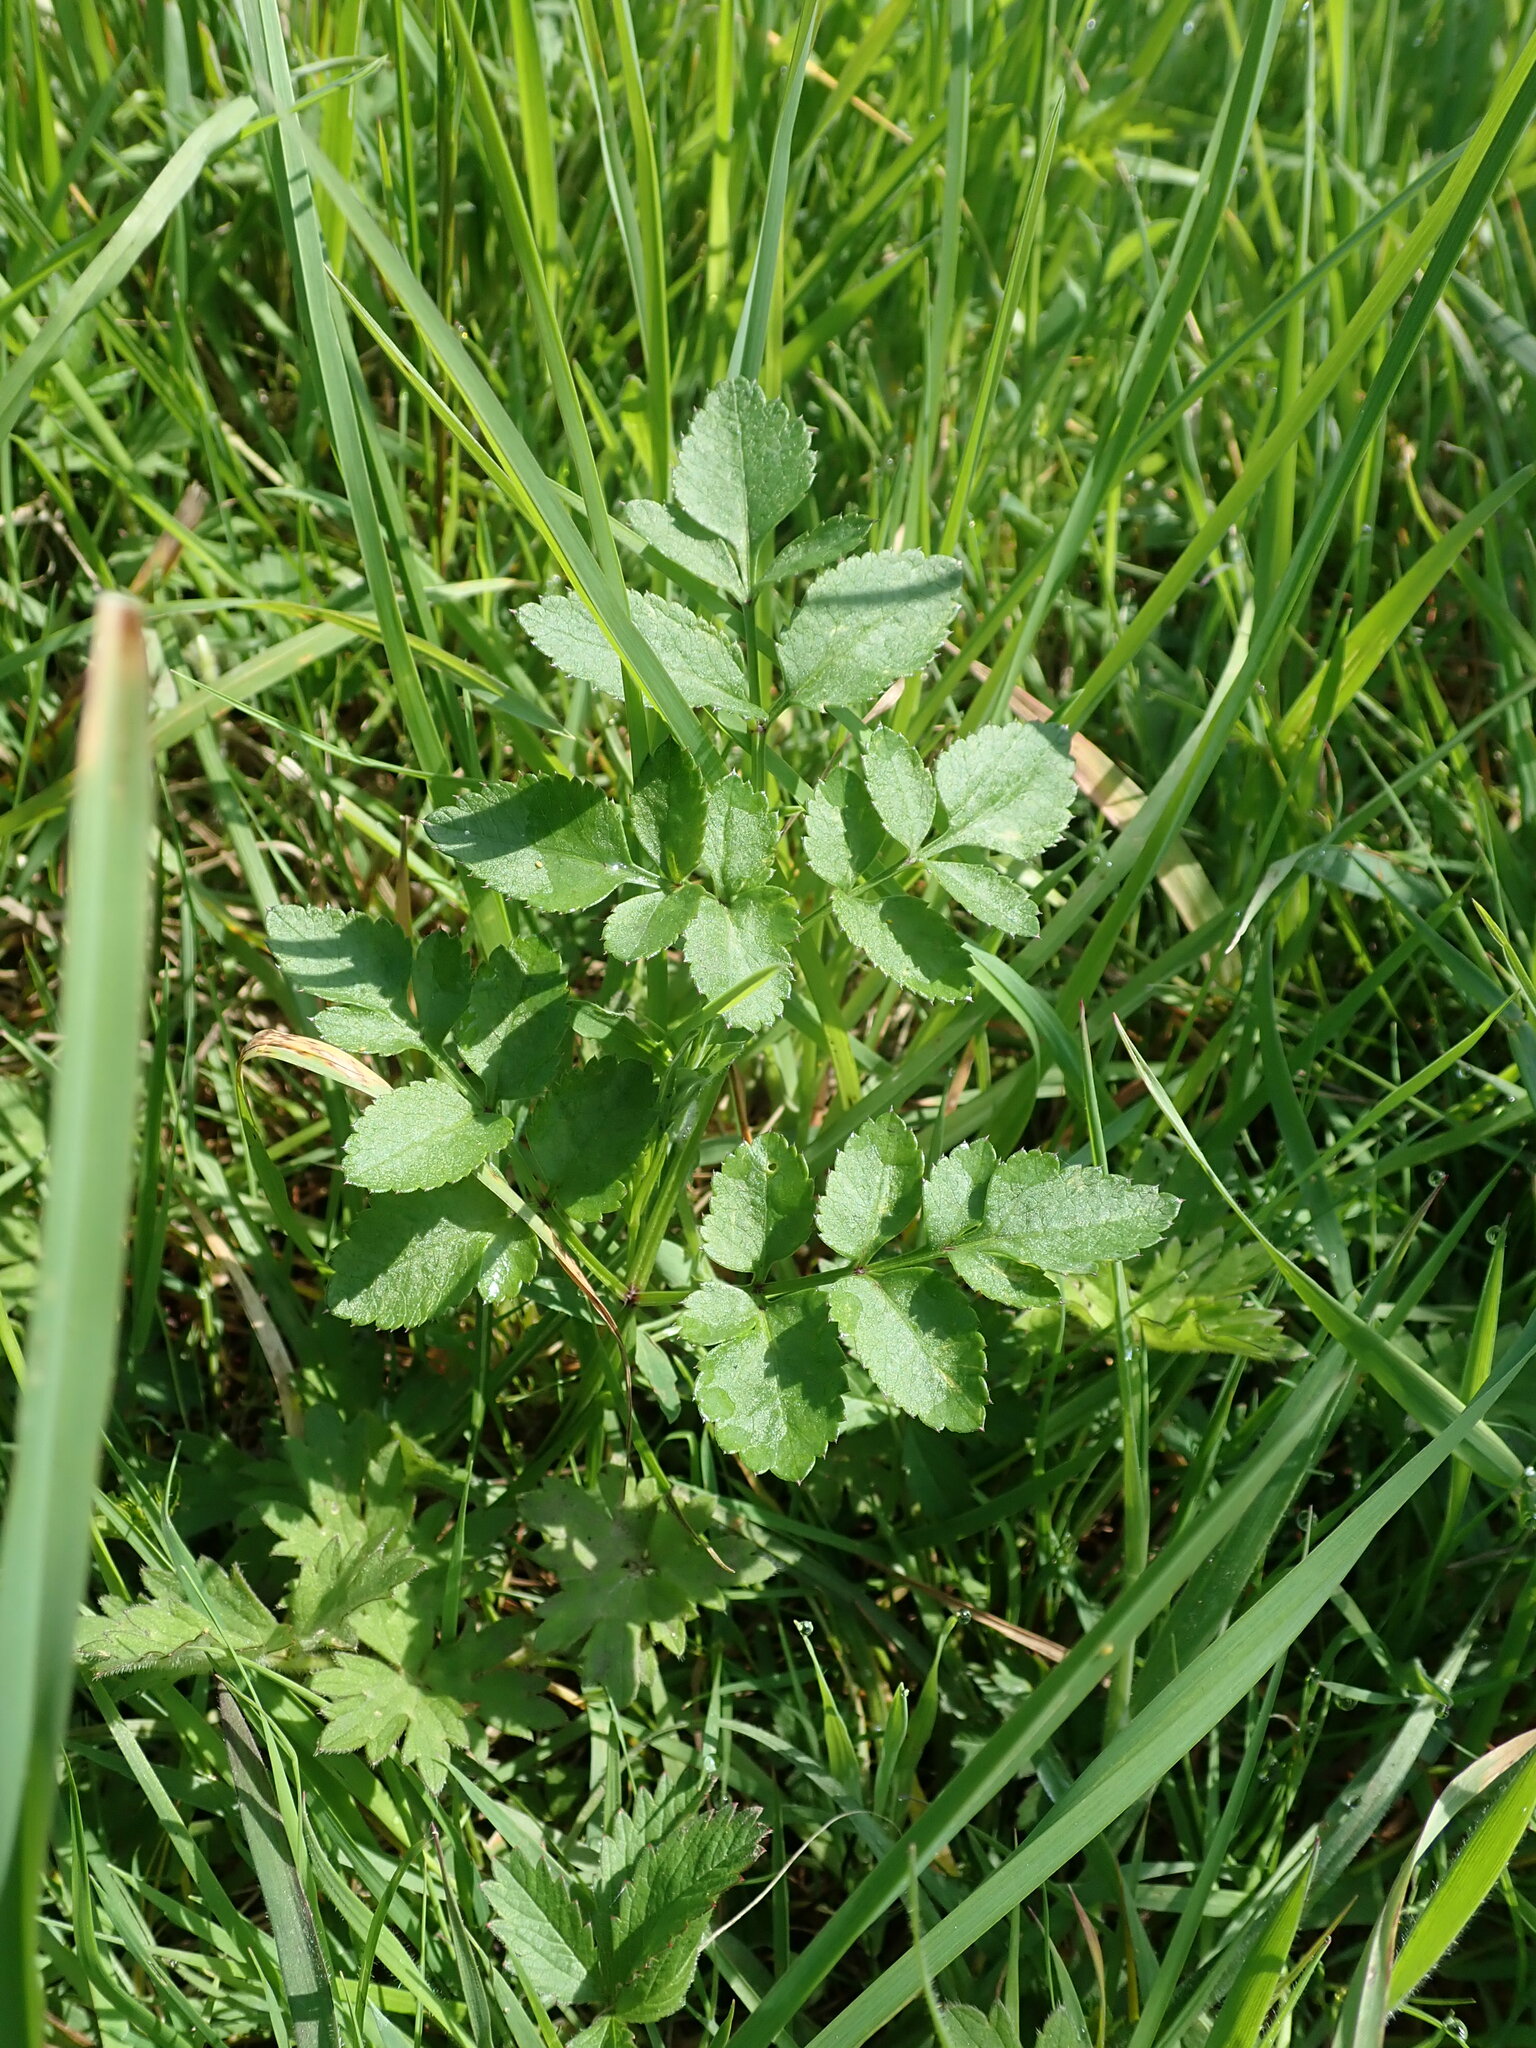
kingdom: Plantae
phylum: Tracheophyta
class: Magnoliopsida
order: Apiales
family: Apiaceae
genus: Angelica
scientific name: Angelica sylvestris
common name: Wild angelica
